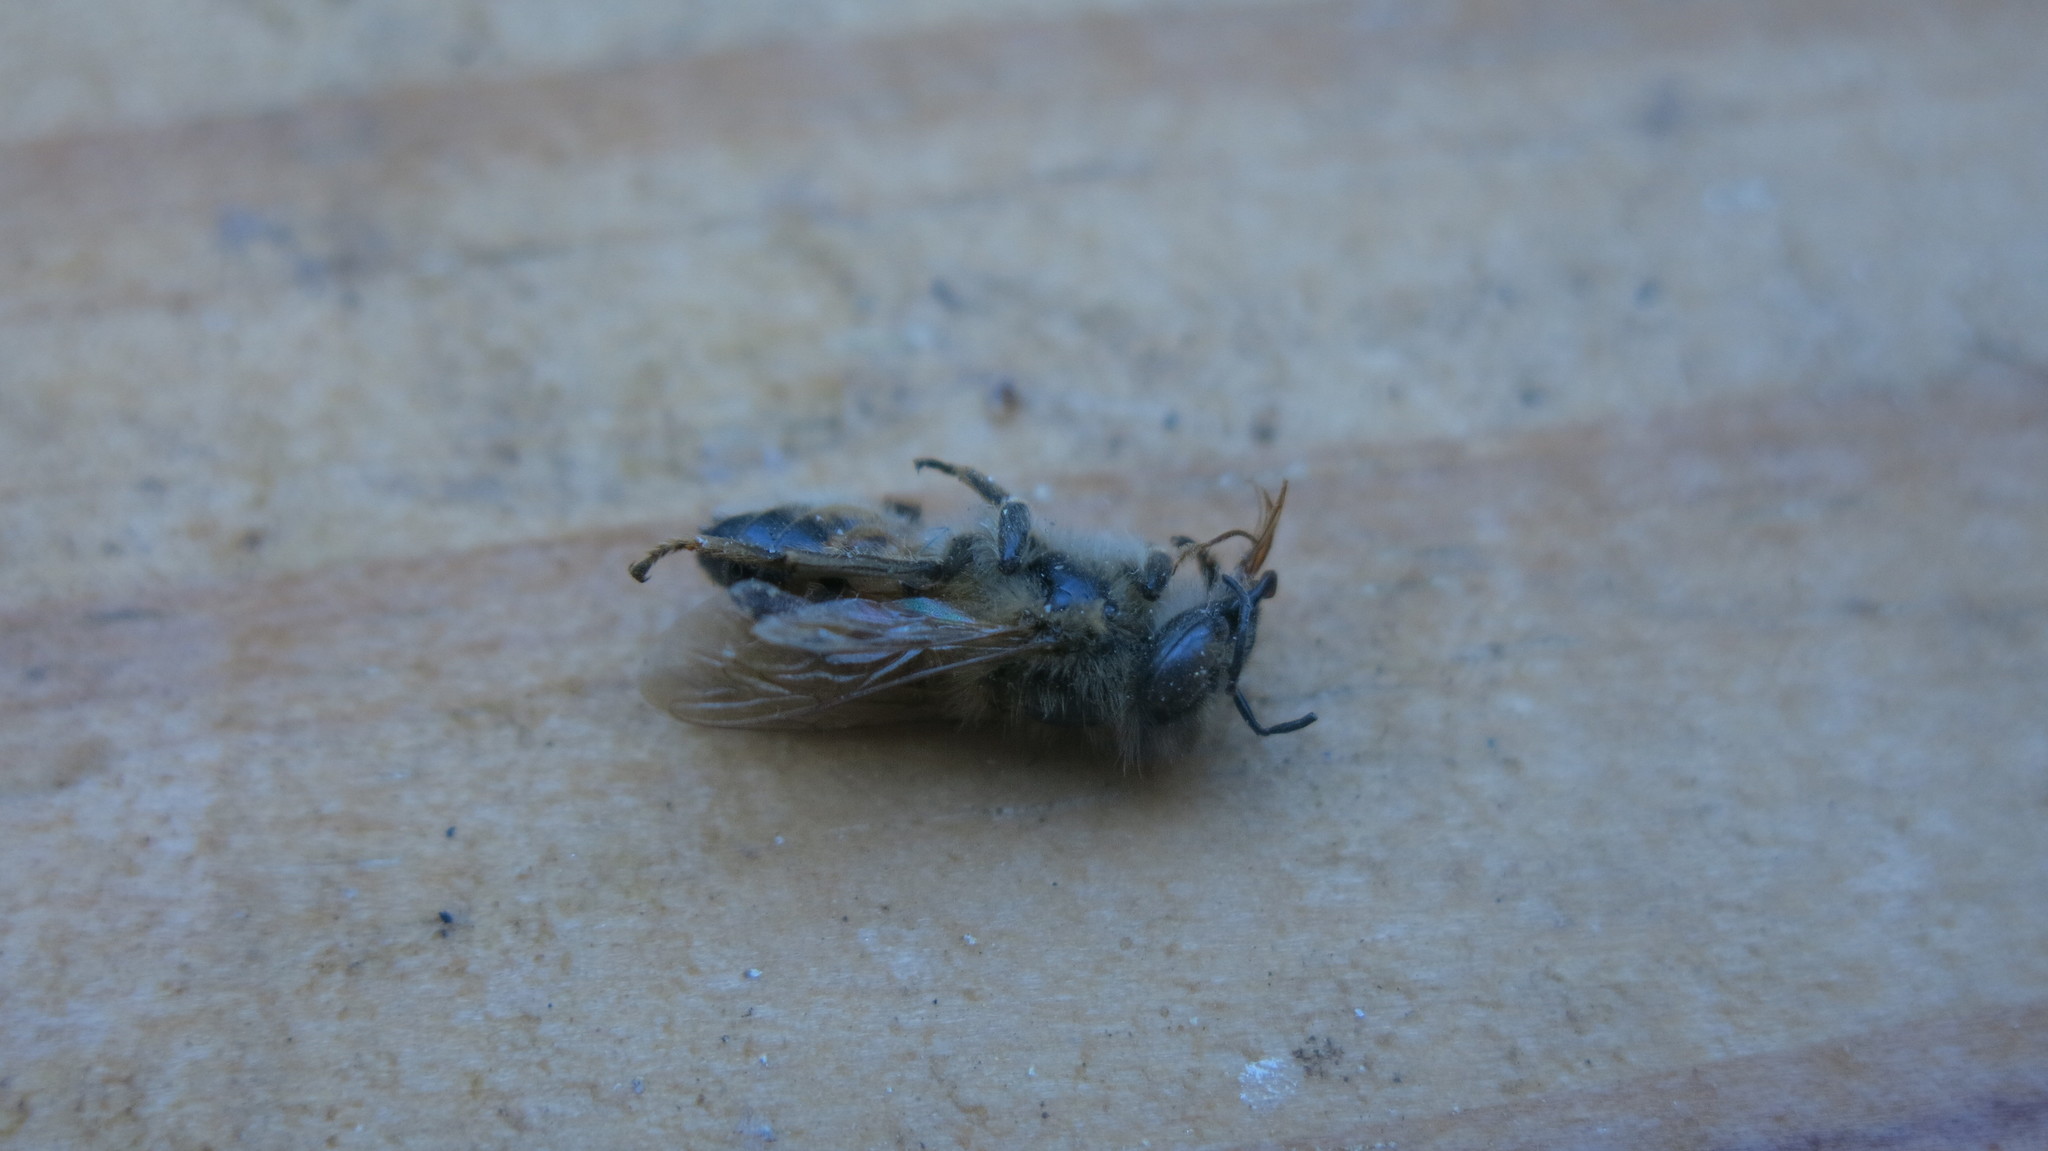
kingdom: Animalia
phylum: Arthropoda
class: Insecta
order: Hymenoptera
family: Apidae
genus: Apis
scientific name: Apis mellifera
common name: Honey bee
